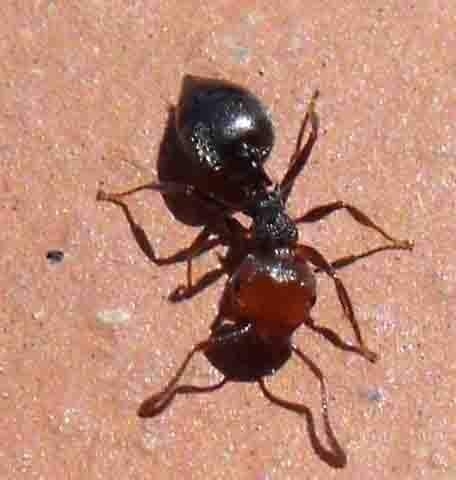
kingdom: Animalia
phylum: Arthropoda
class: Insecta
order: Hymenoptera
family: Formicidae
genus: Crematogaster
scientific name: Crematogaster scutellaris
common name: Fourmi du liège
